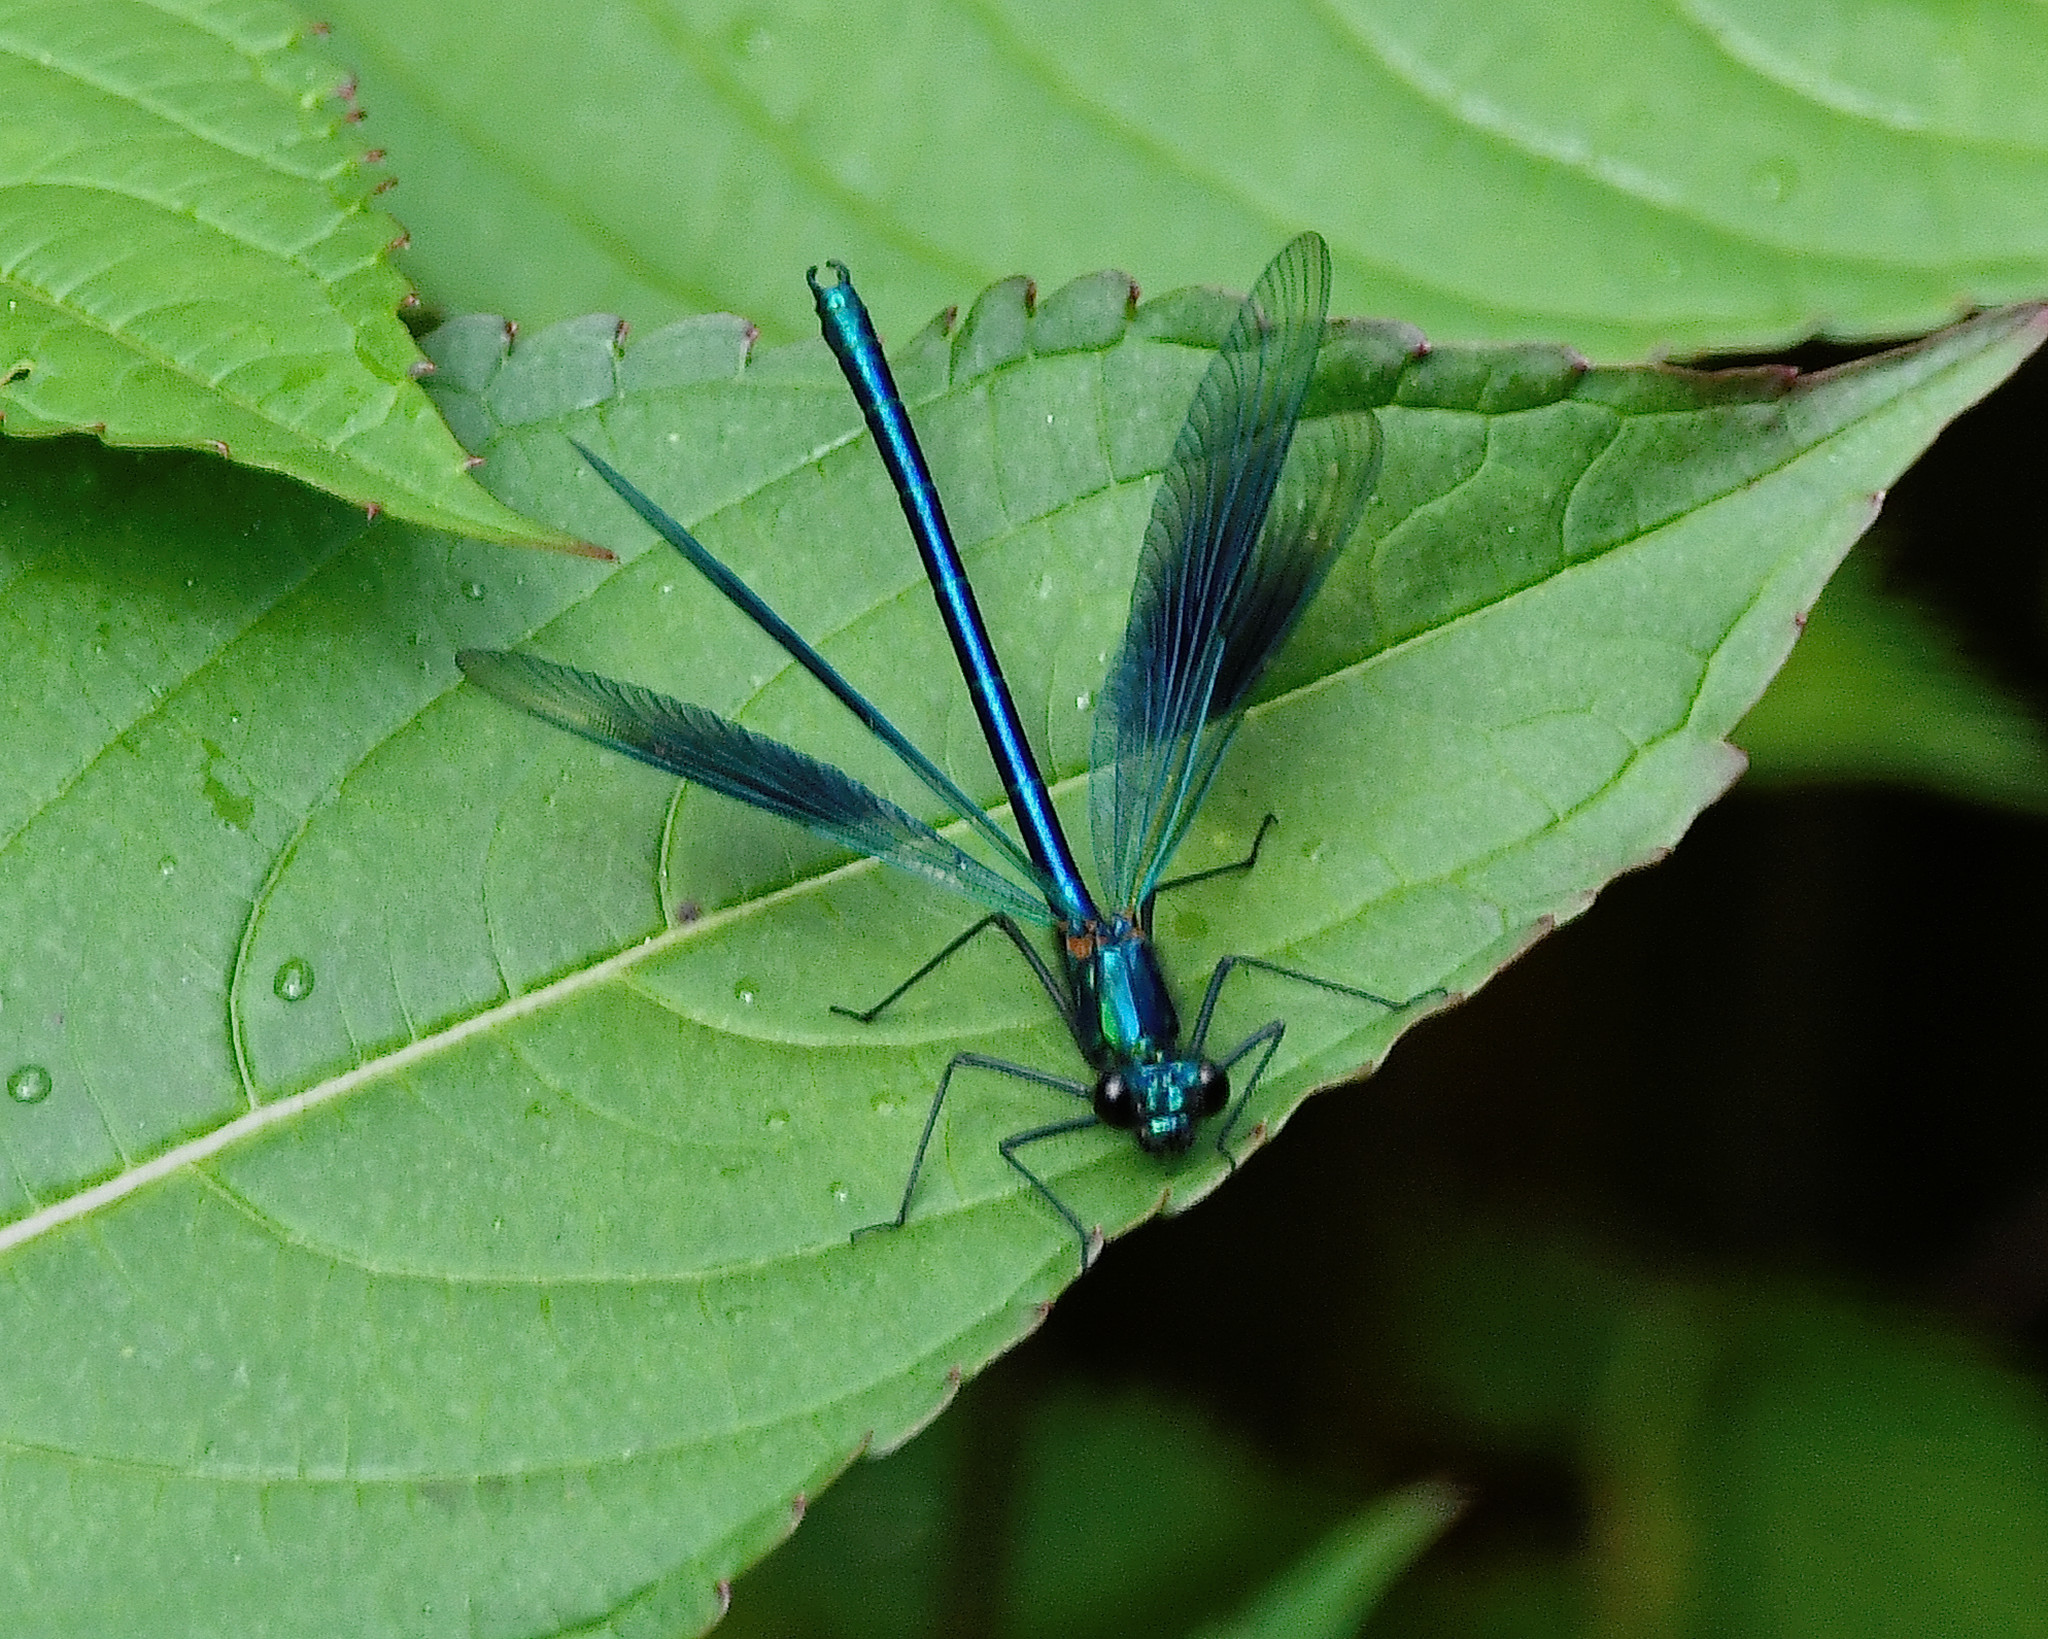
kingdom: Animalia
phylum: Arthropoda
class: Insecta
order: Odonata
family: Calopterygidae
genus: Calopteryx
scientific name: Calopteryx splendens
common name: Banded demoiselle
